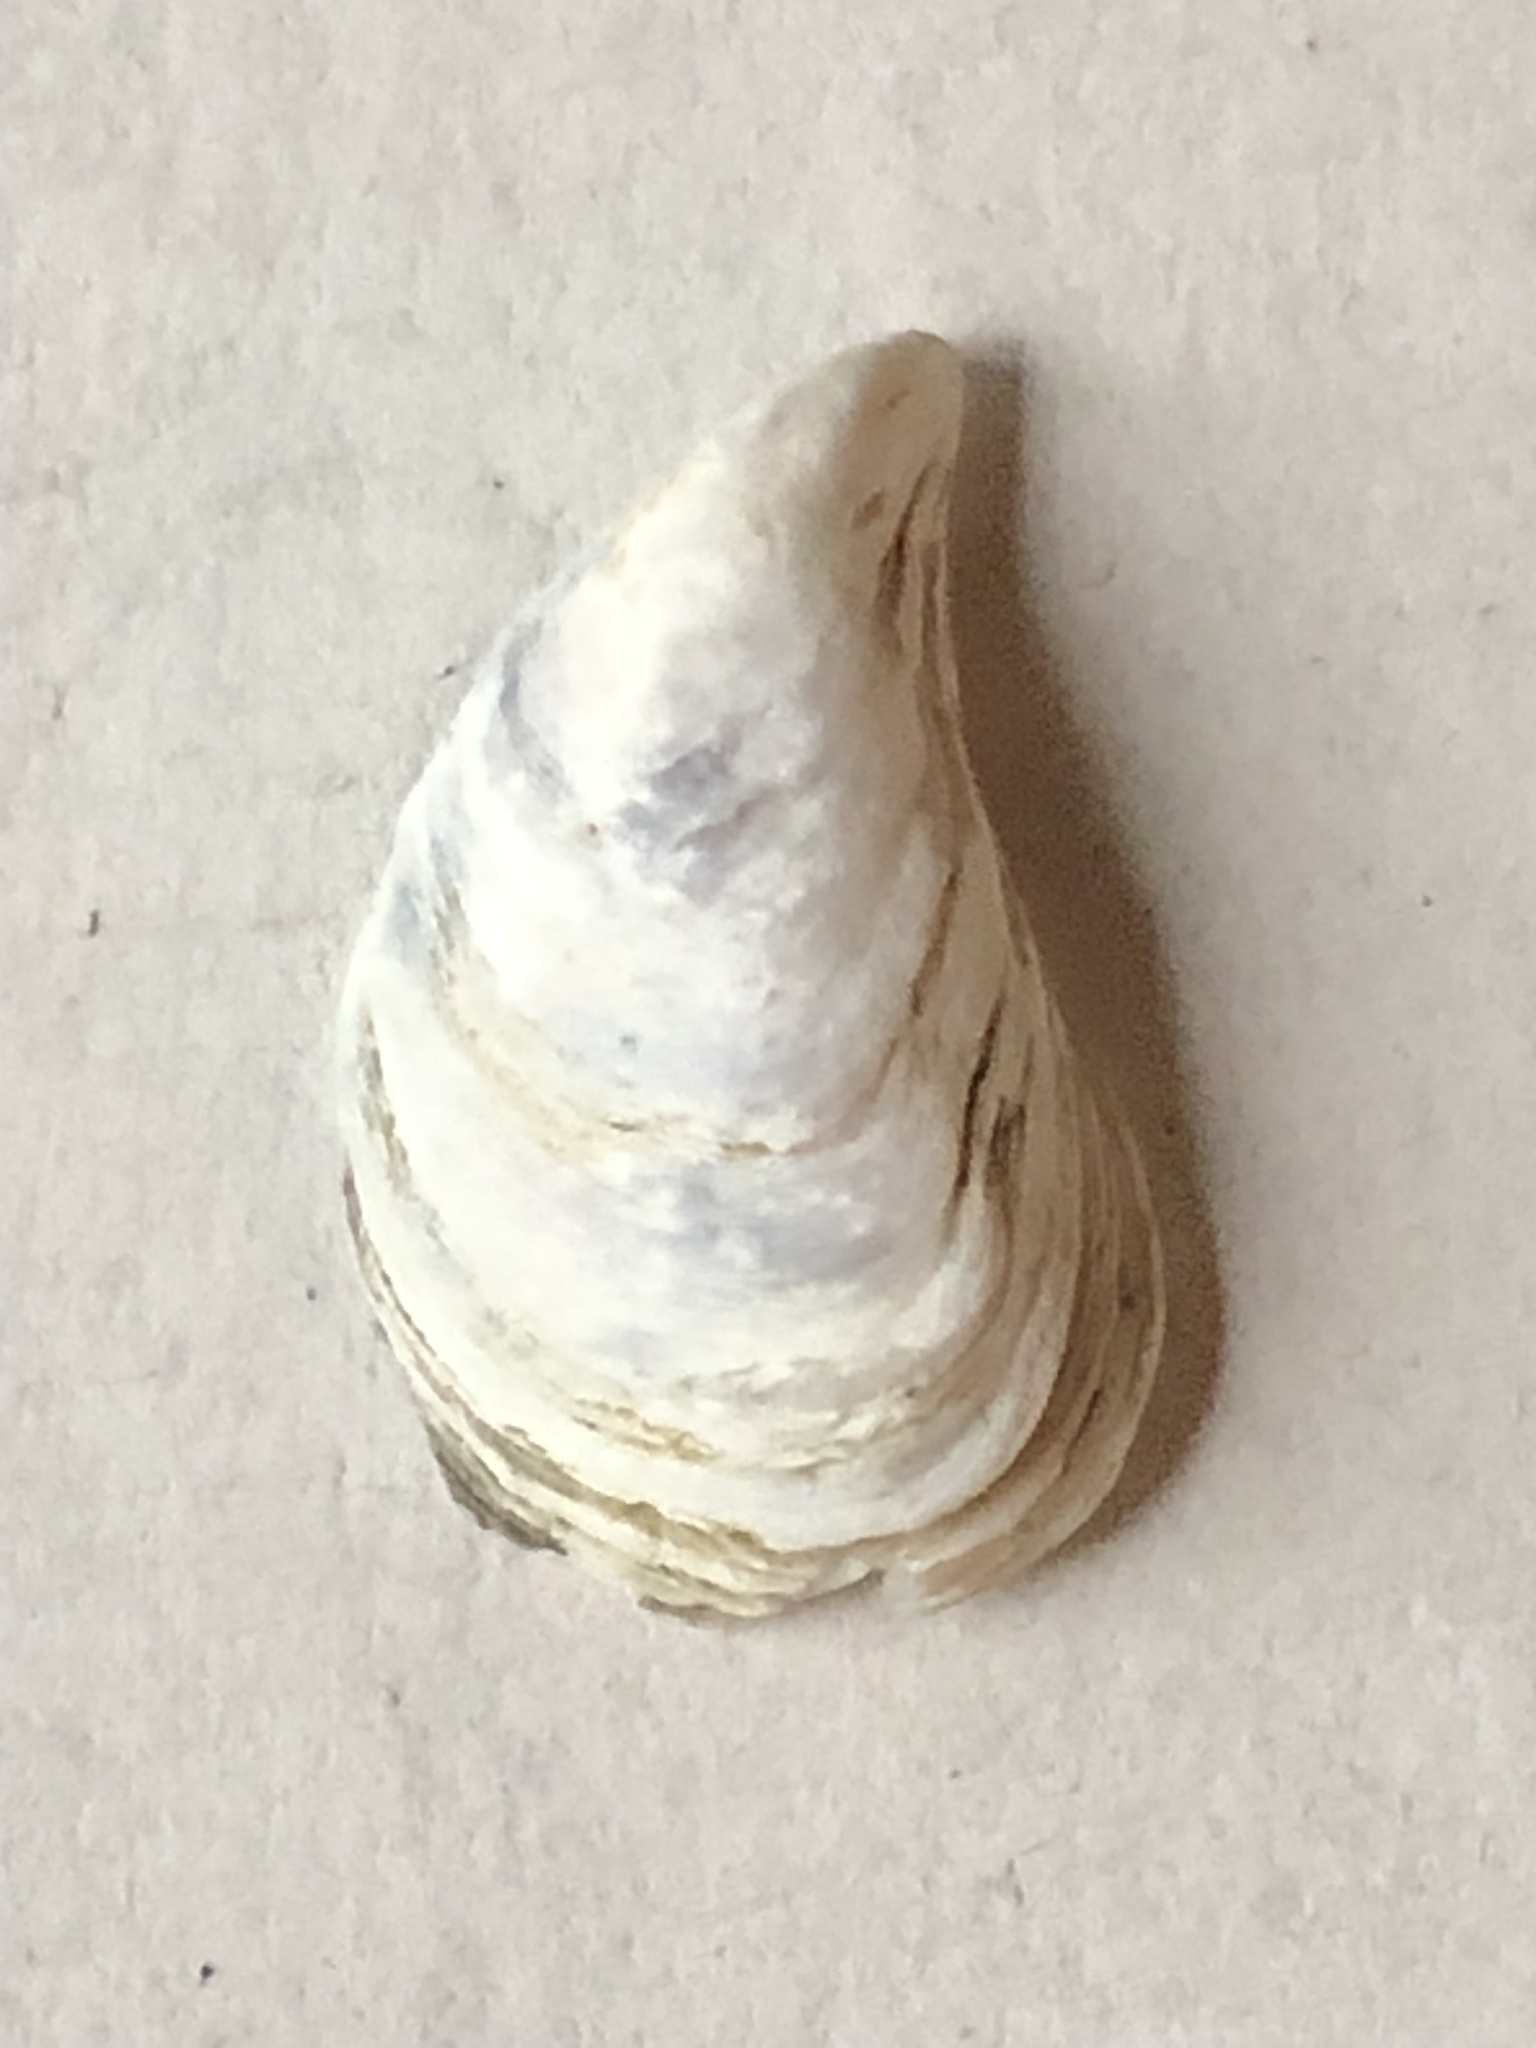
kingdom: Animalia
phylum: Mollusca
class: Bivalvia
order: Myida
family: Dreissenidae
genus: Dreissena
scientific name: Dreissena bugensis
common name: Quagga mussel
